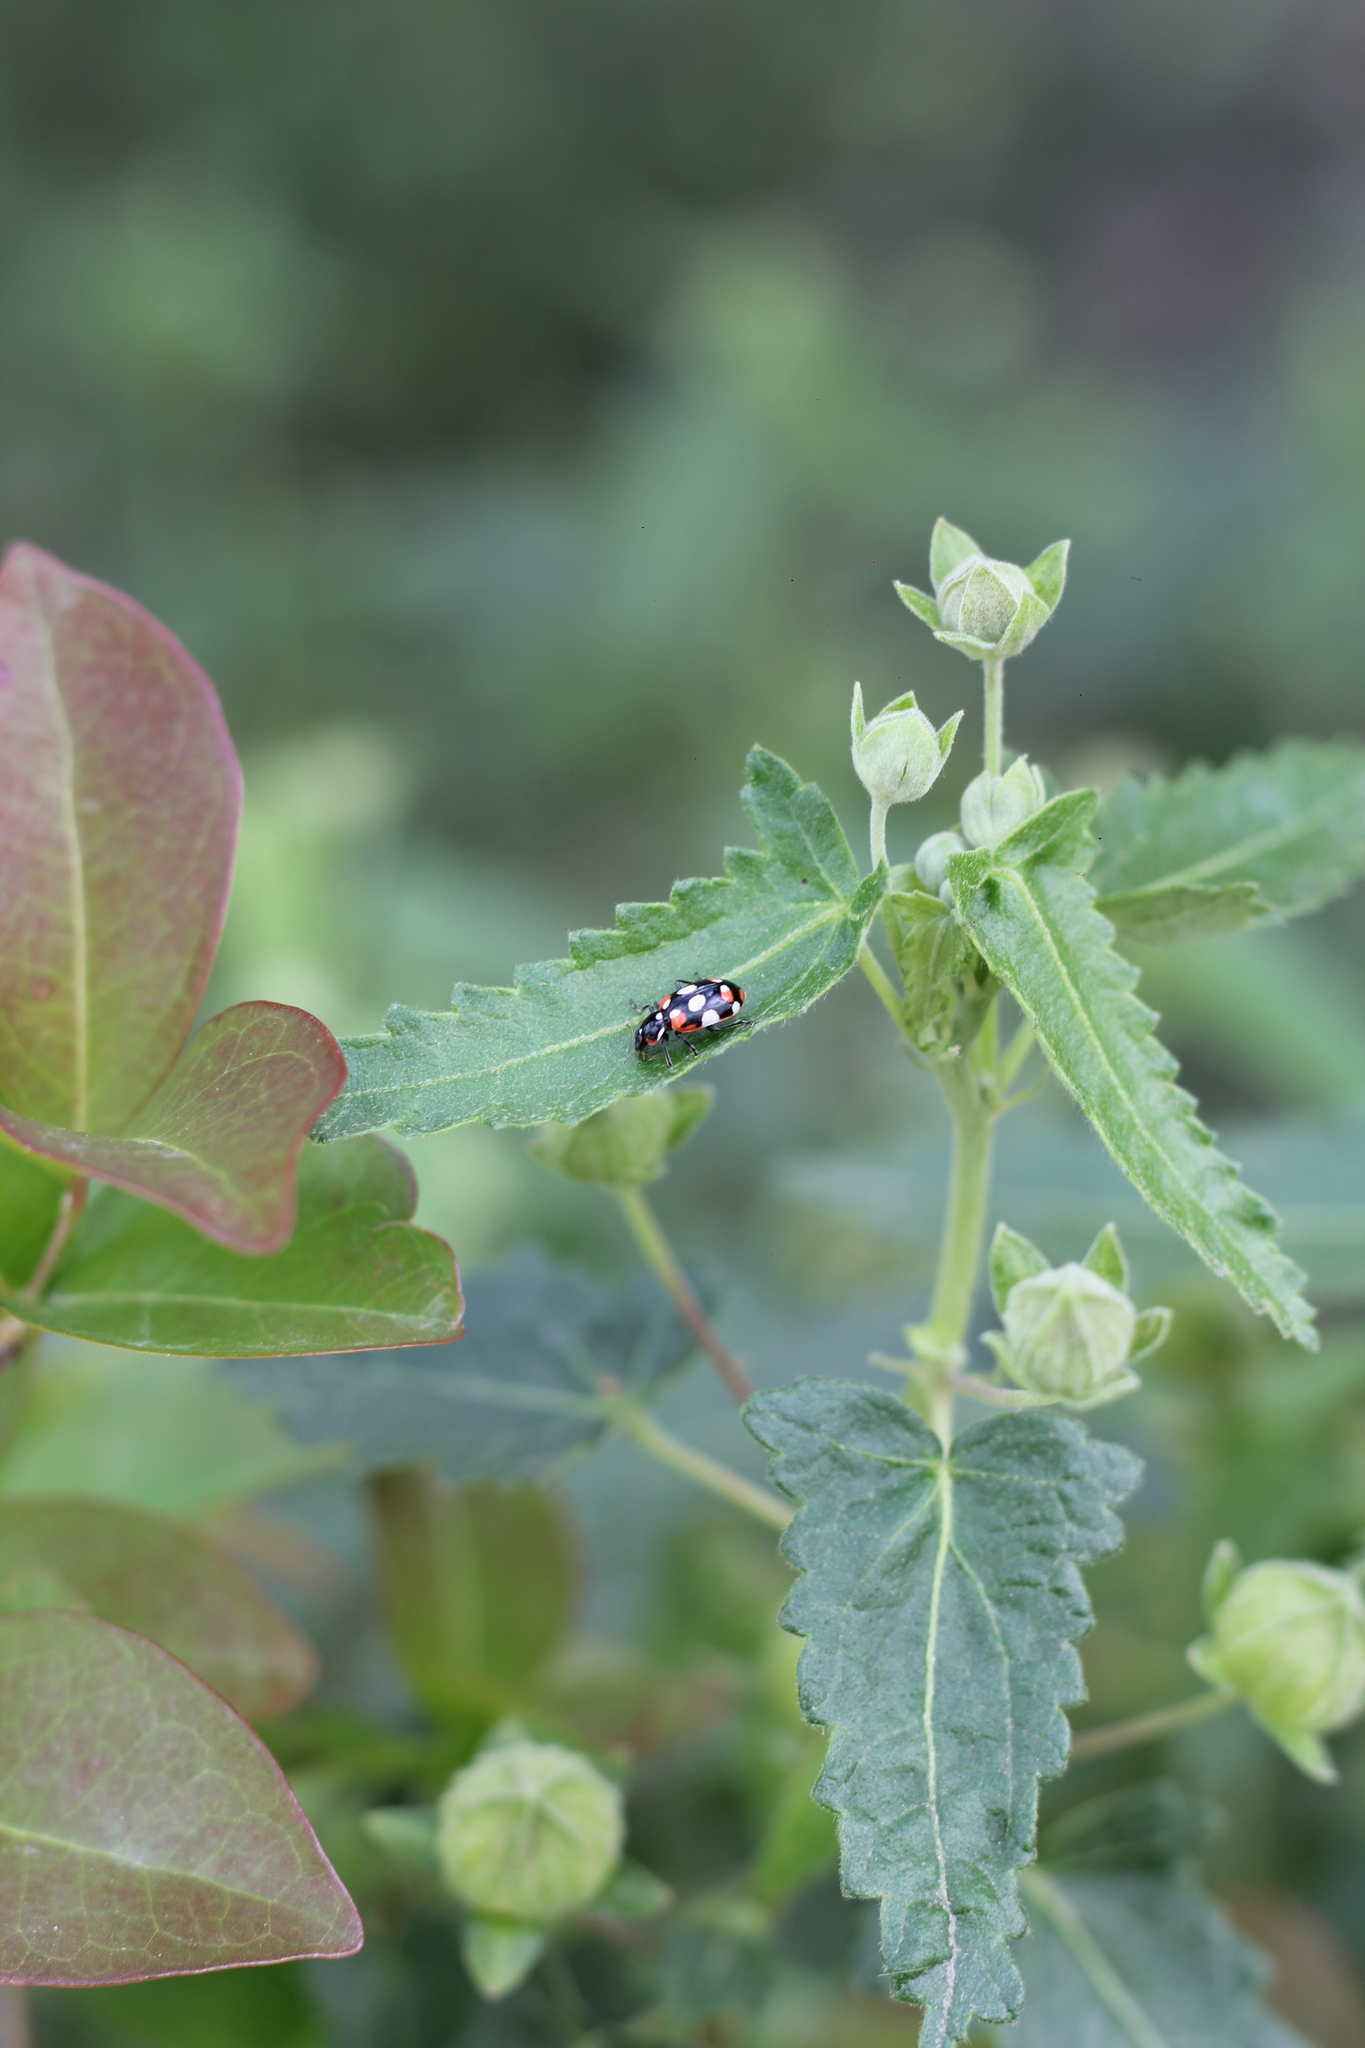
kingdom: Animalia
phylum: Arthropoda
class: Insecta
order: Coleoptera
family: Coccinellidae
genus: Eriopis
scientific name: Eriopis connexa
